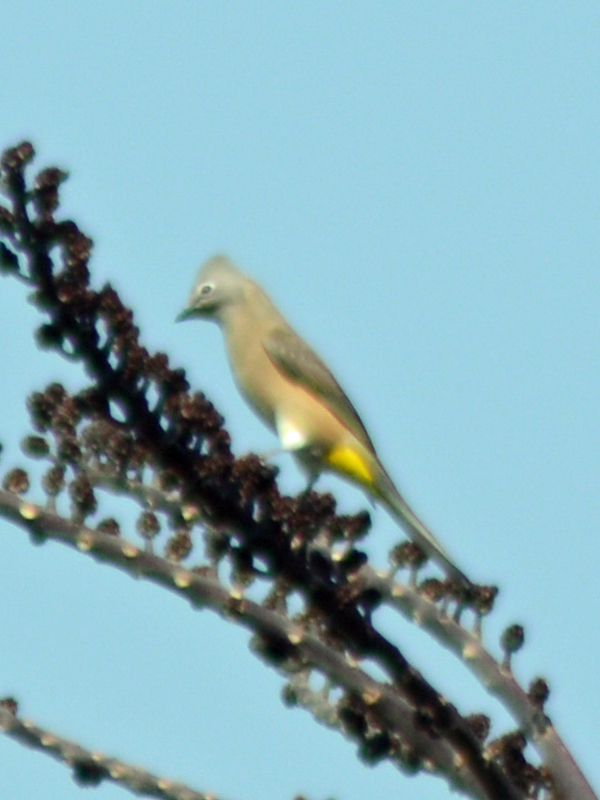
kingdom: Animalia
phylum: Chordata
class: Aves
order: Passeriformes
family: Ptilogonatidae
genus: Ptilogonys
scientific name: Ptilogonys cinereus
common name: Gray silky-flycatcher
